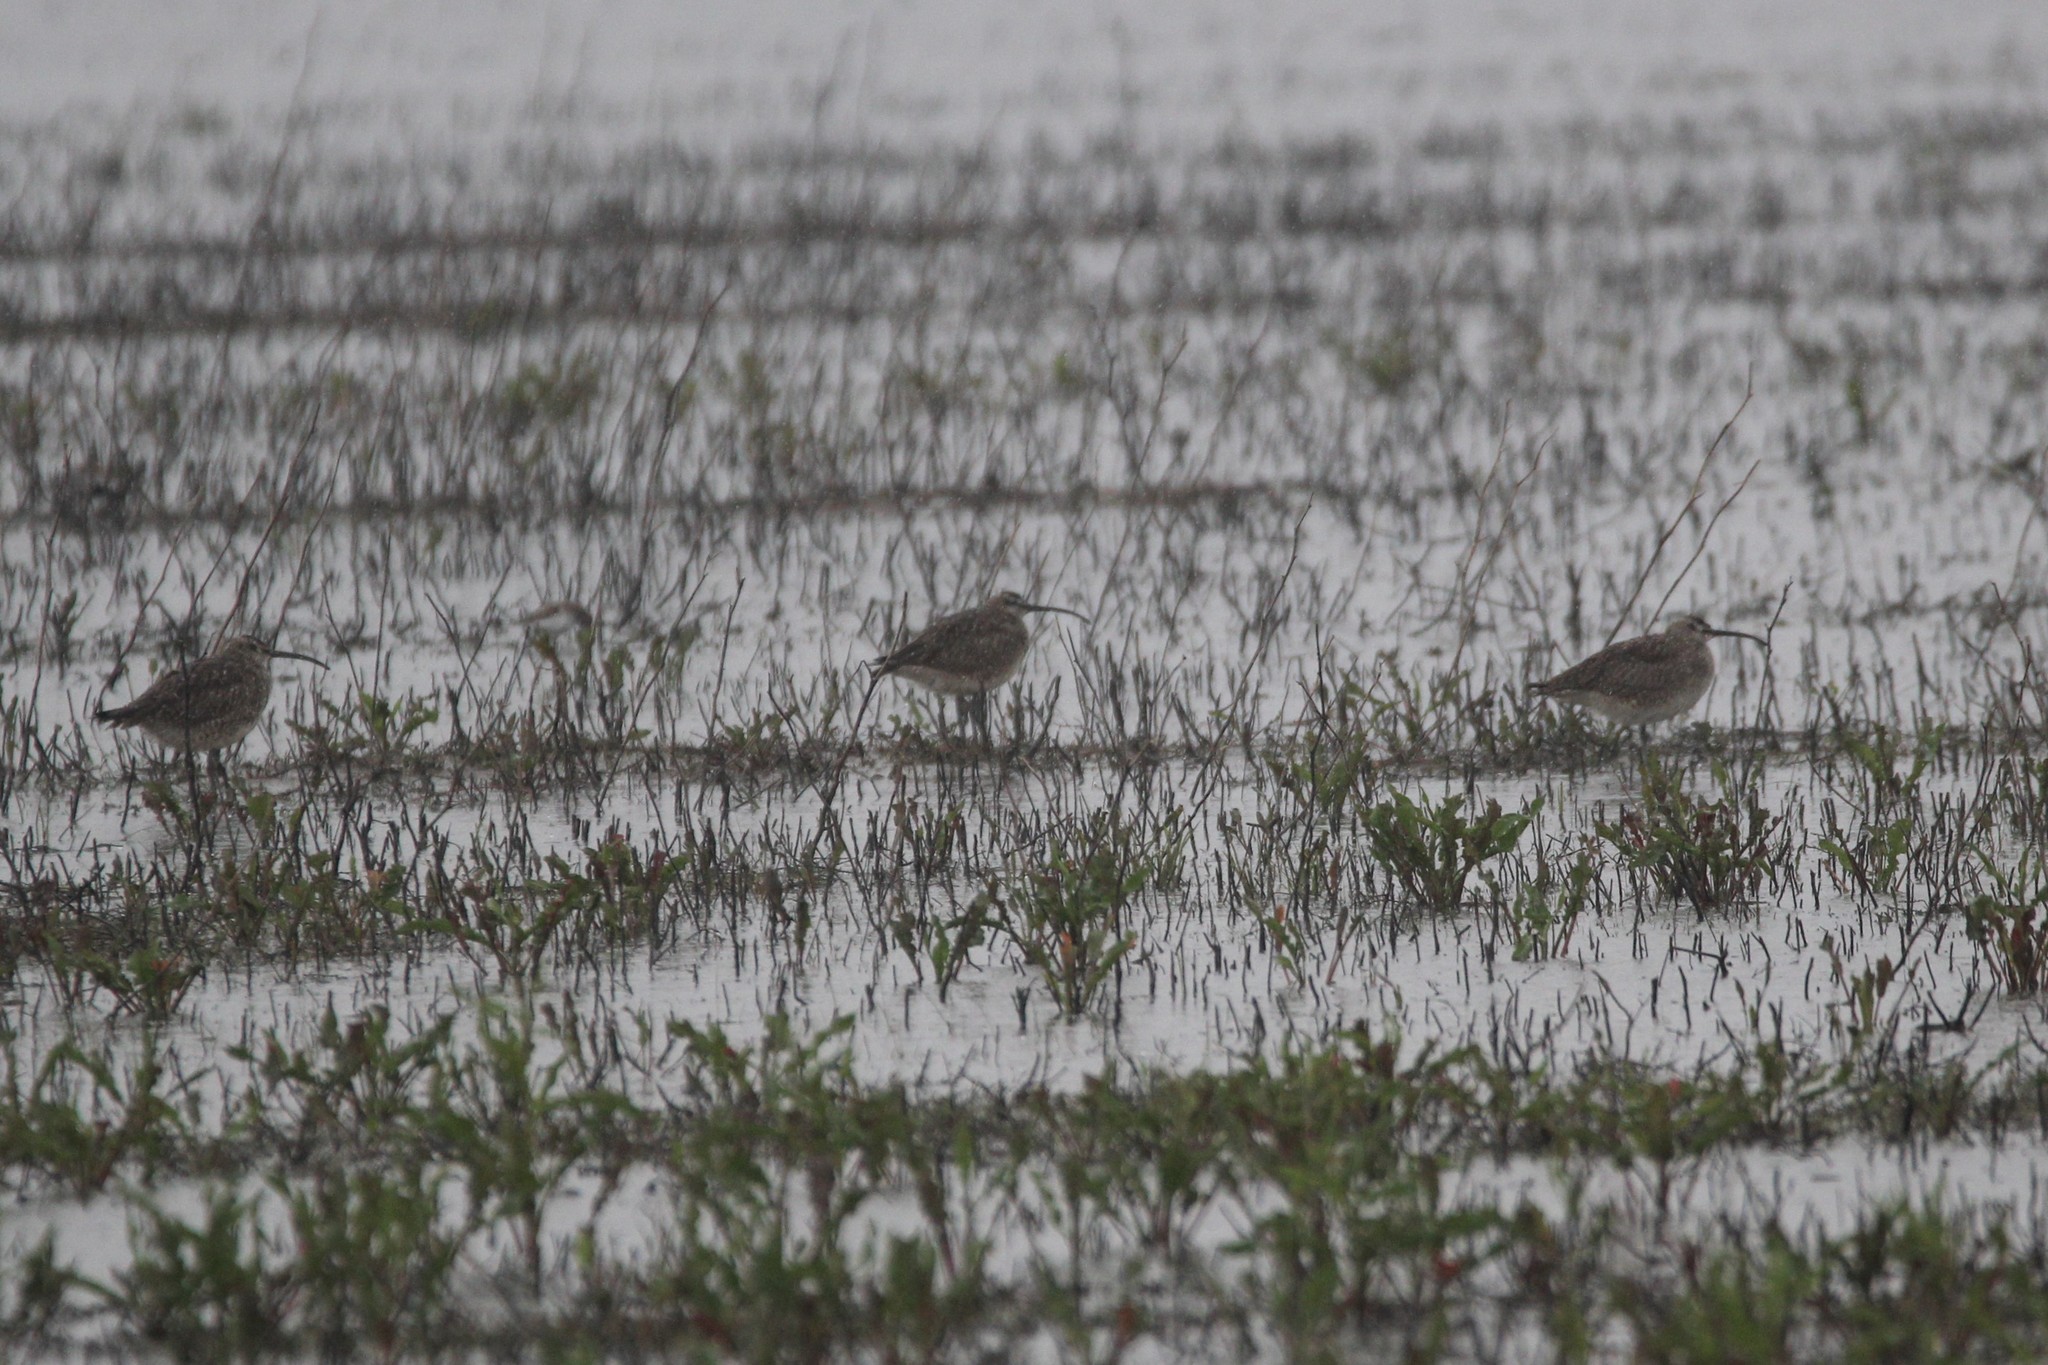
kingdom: Animalia
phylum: Chordata
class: Aves
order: Charadriiformes
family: Scolopacidae
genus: Numenius
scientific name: Numenius phaeopus
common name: Whimbrel
